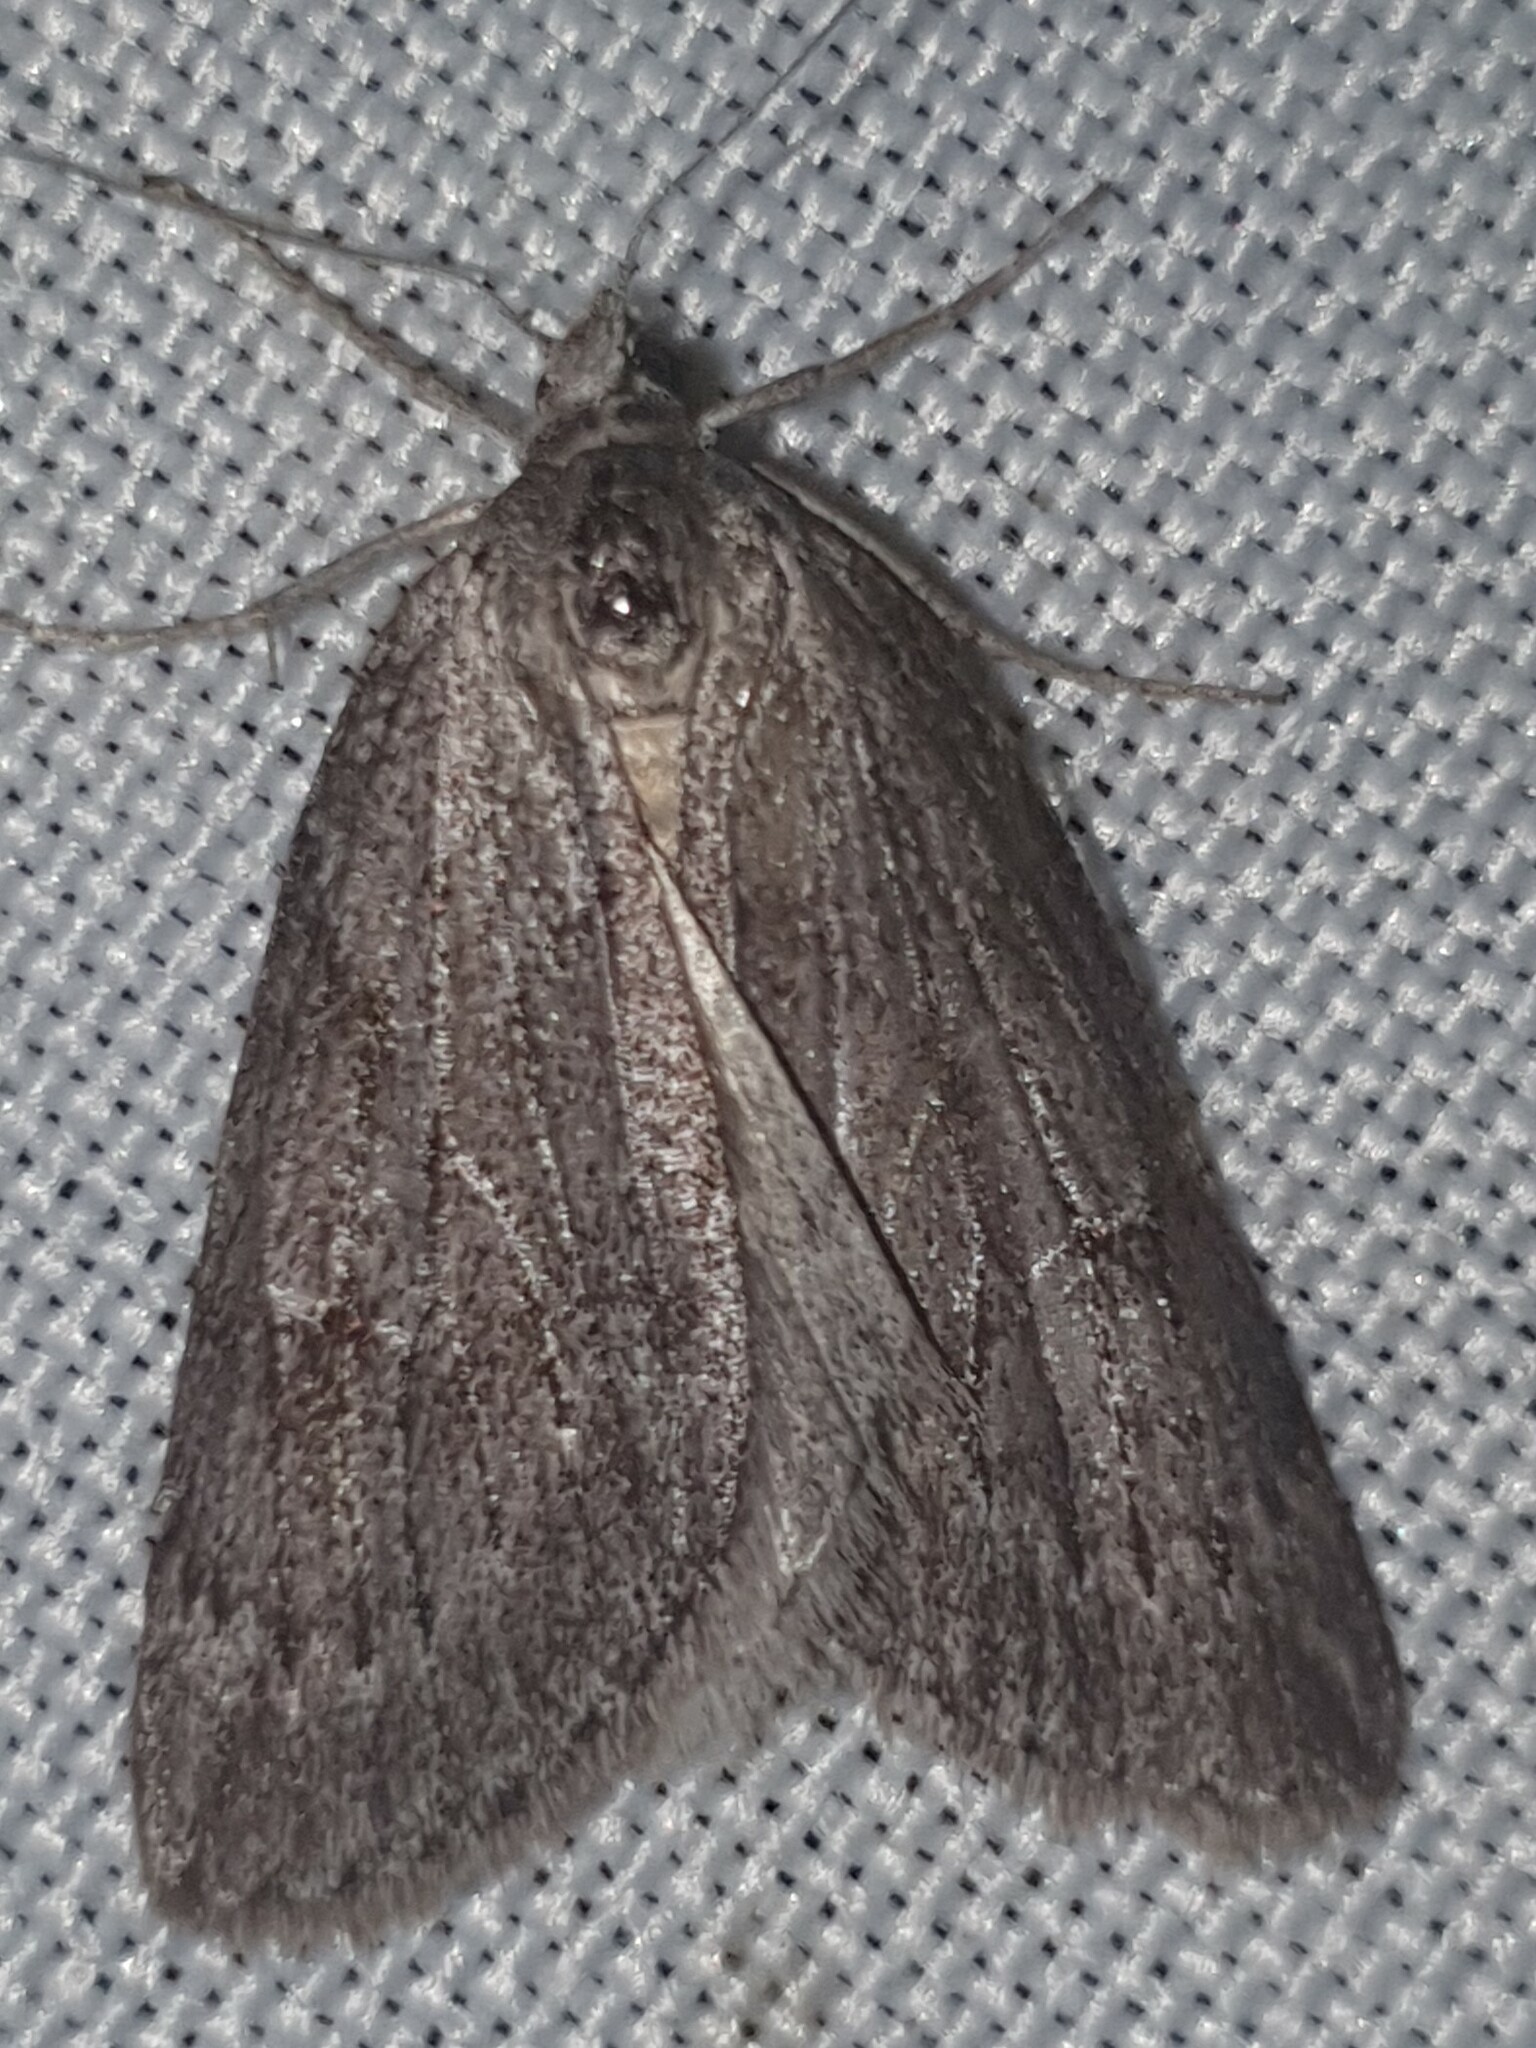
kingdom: Animalia
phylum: Arthropoda
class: Insecta
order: Lepidoptera
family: Geometridae
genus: Pachycnemia
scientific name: Pachycnemia hippocastanaria
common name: Horse chestnut
